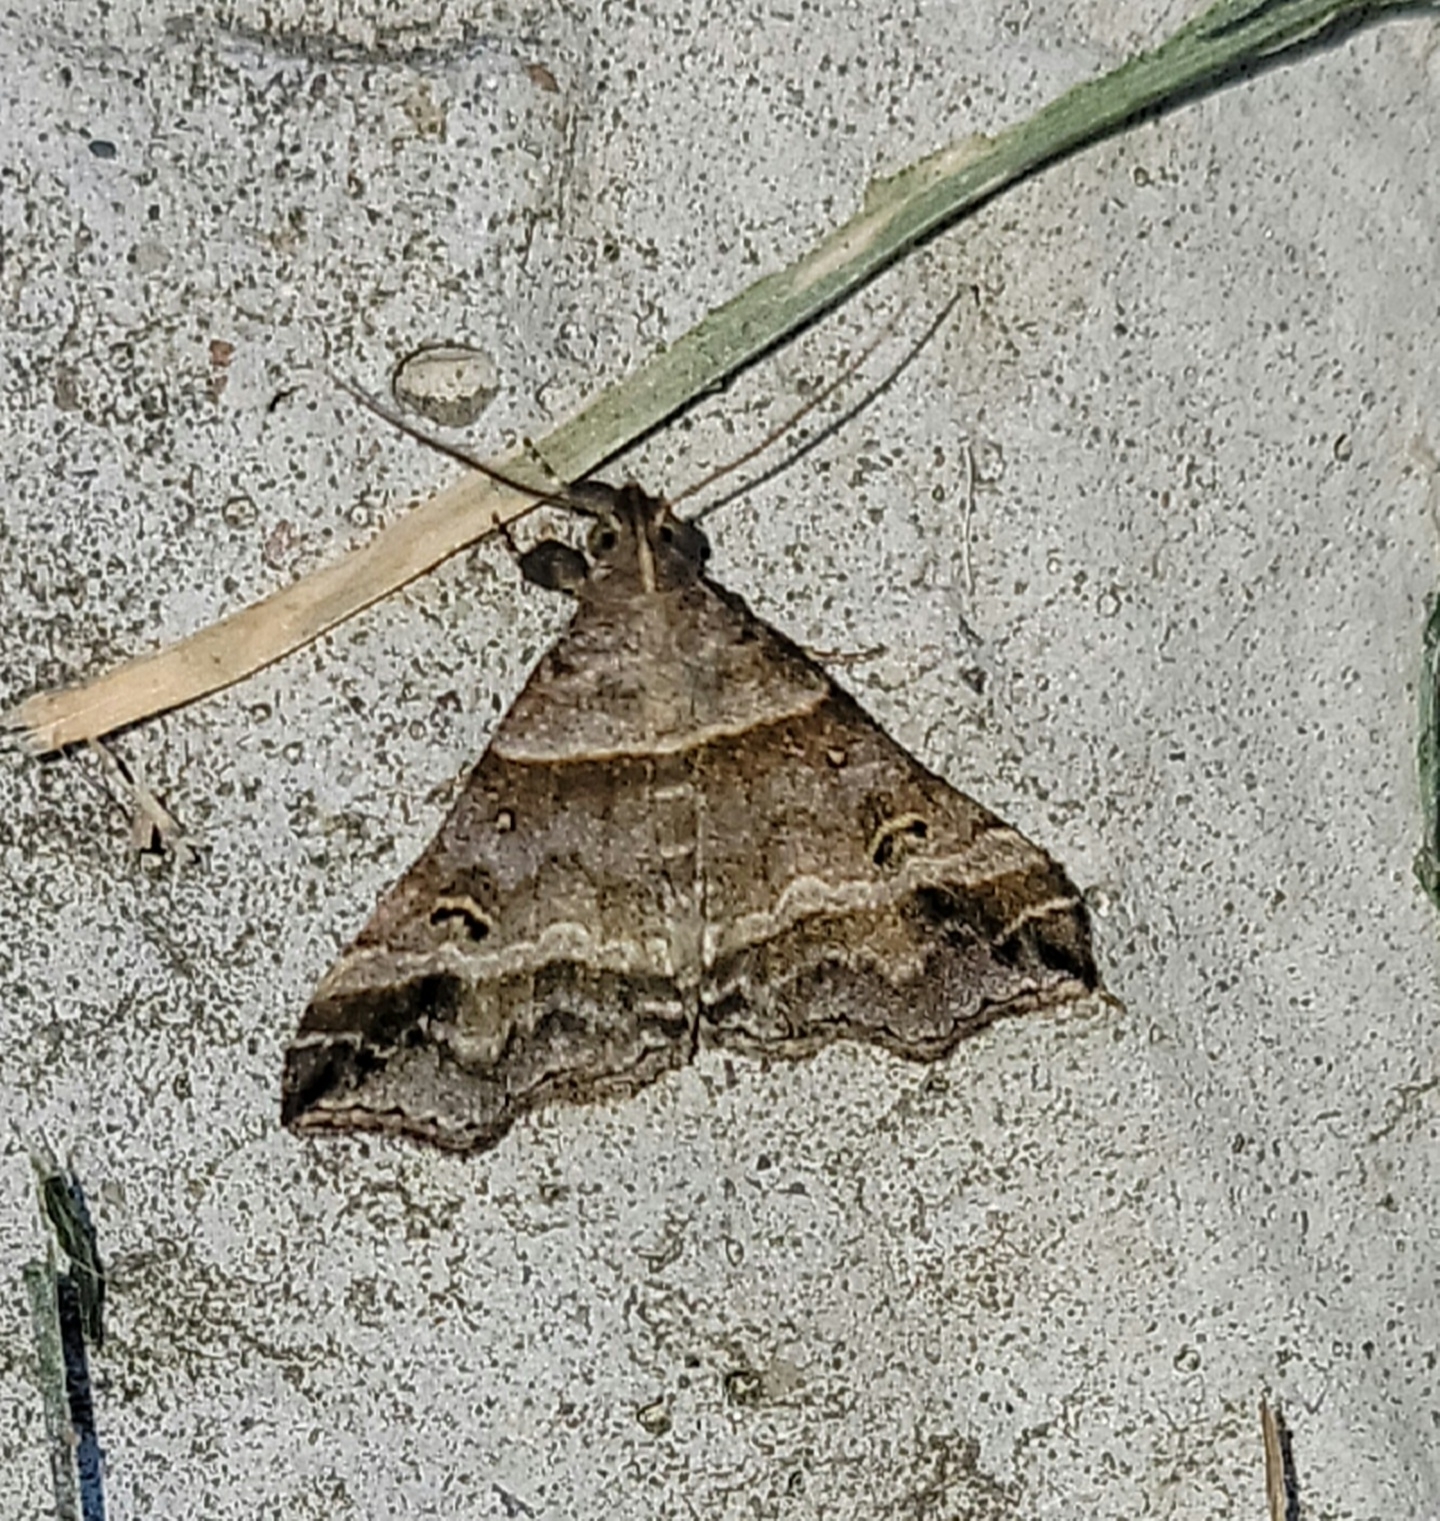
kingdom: Animalia
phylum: Arthropoda
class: Insecta
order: Lepidoptera
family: Erebidae
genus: Phaeolita
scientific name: Phaeolita pyramusalis
